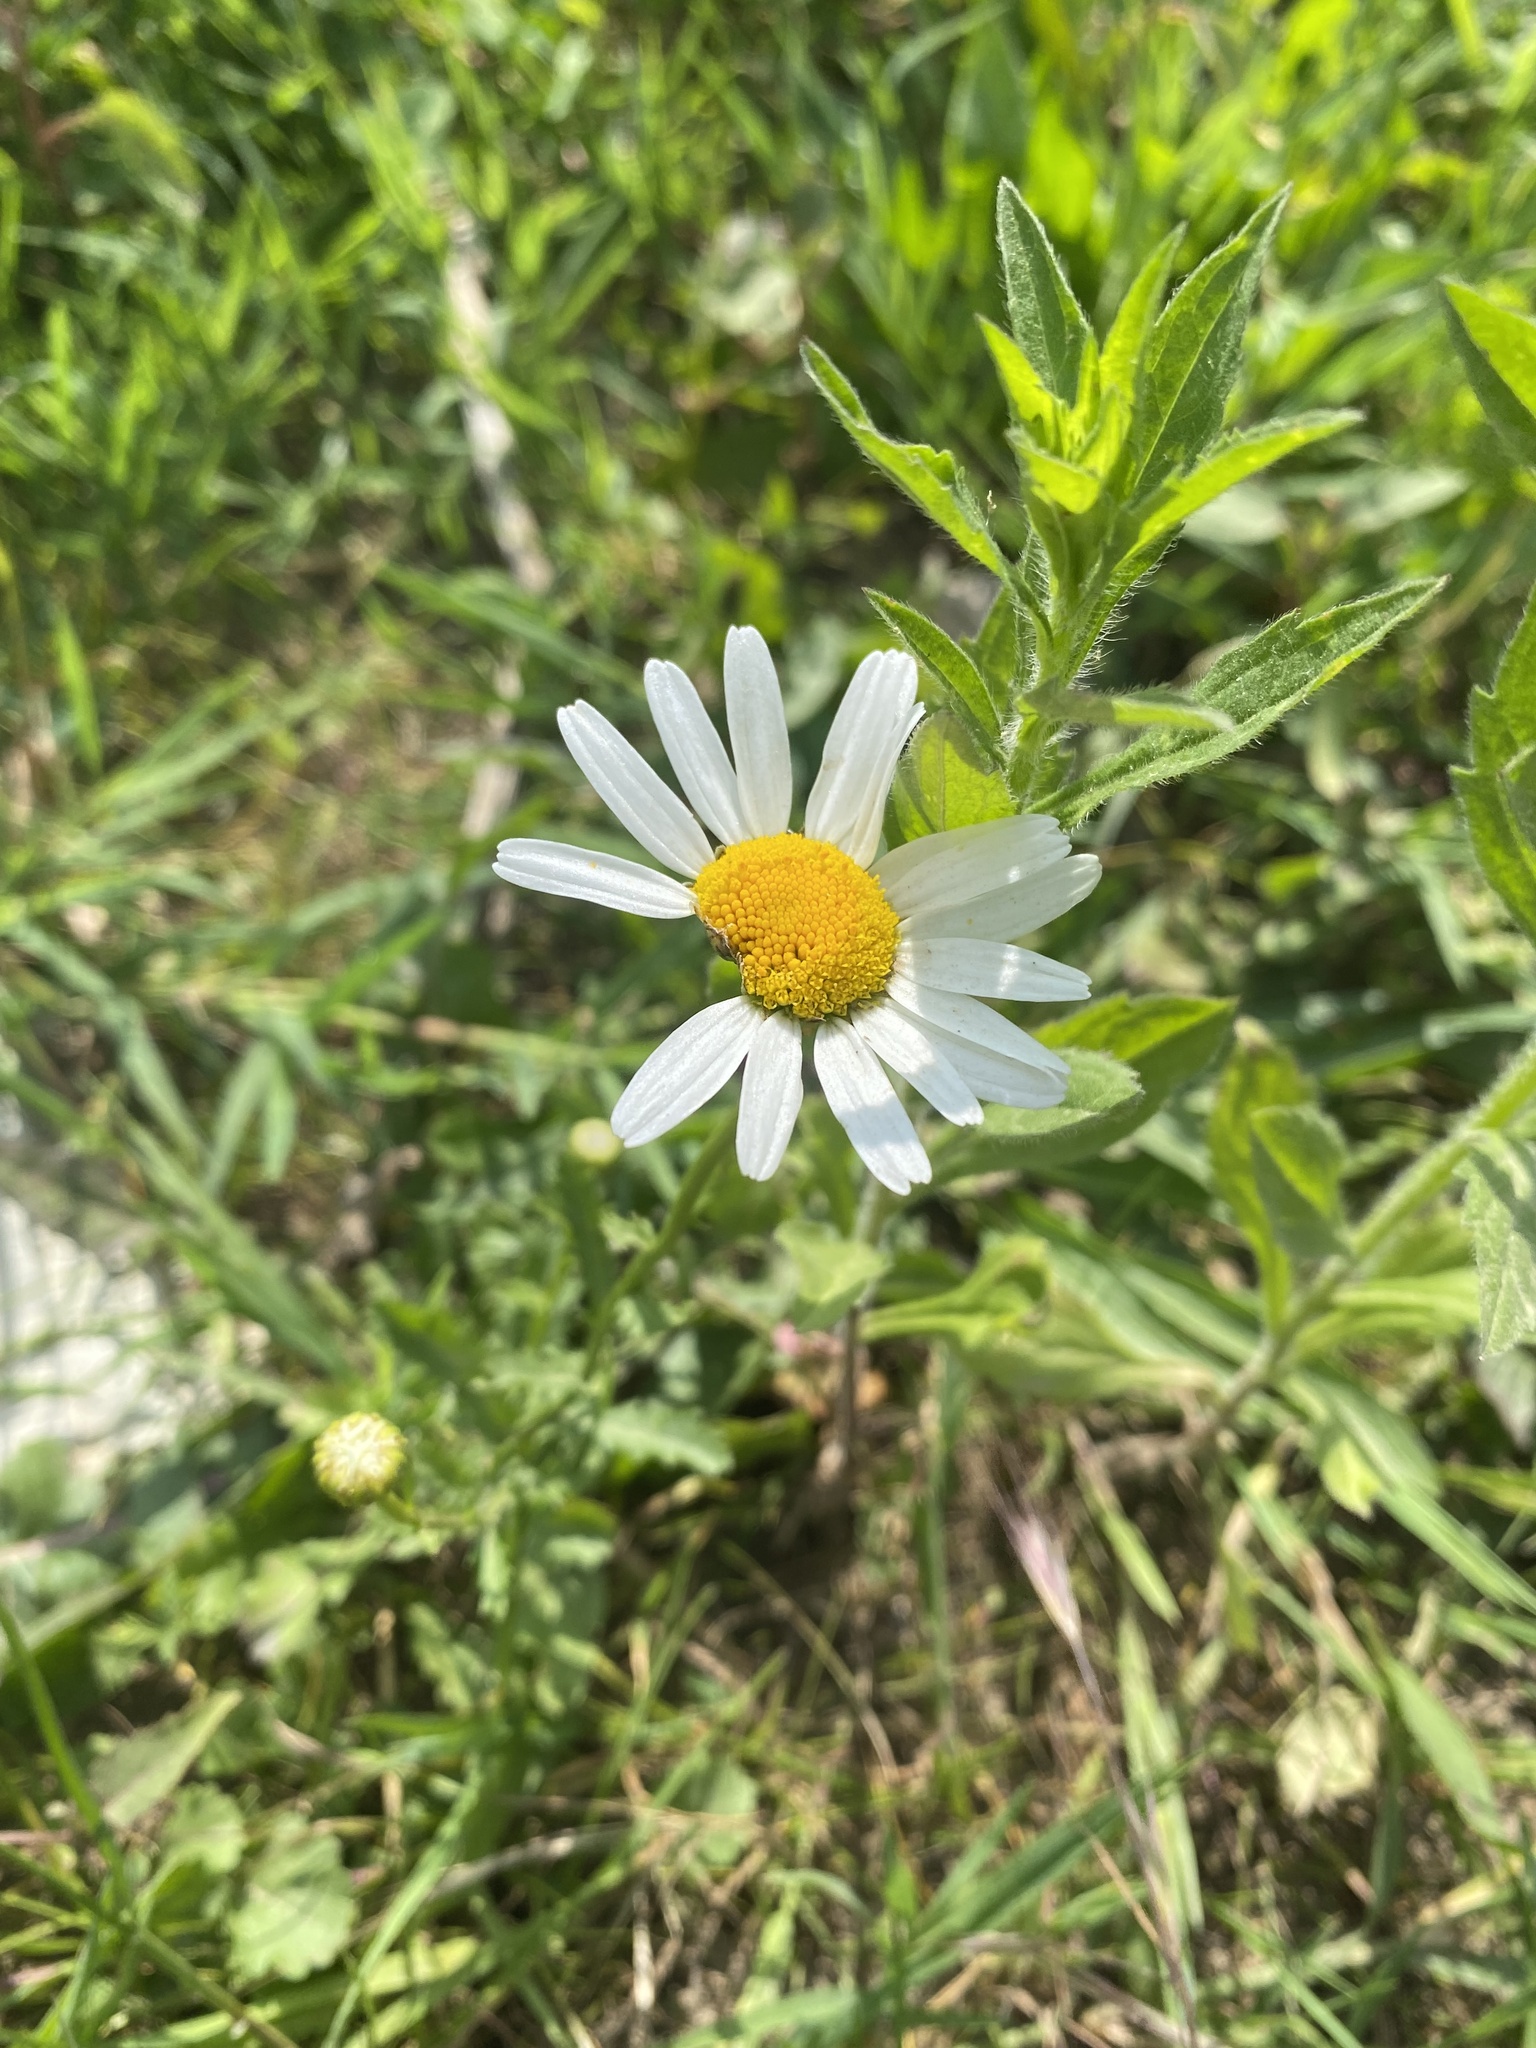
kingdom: Plantae
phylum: Tracheophyta
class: Magnoliopsida
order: Asterales
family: Asteraceae
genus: Leucanthemum
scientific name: Leucanthemum vulgare
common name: Oxeye daisy
